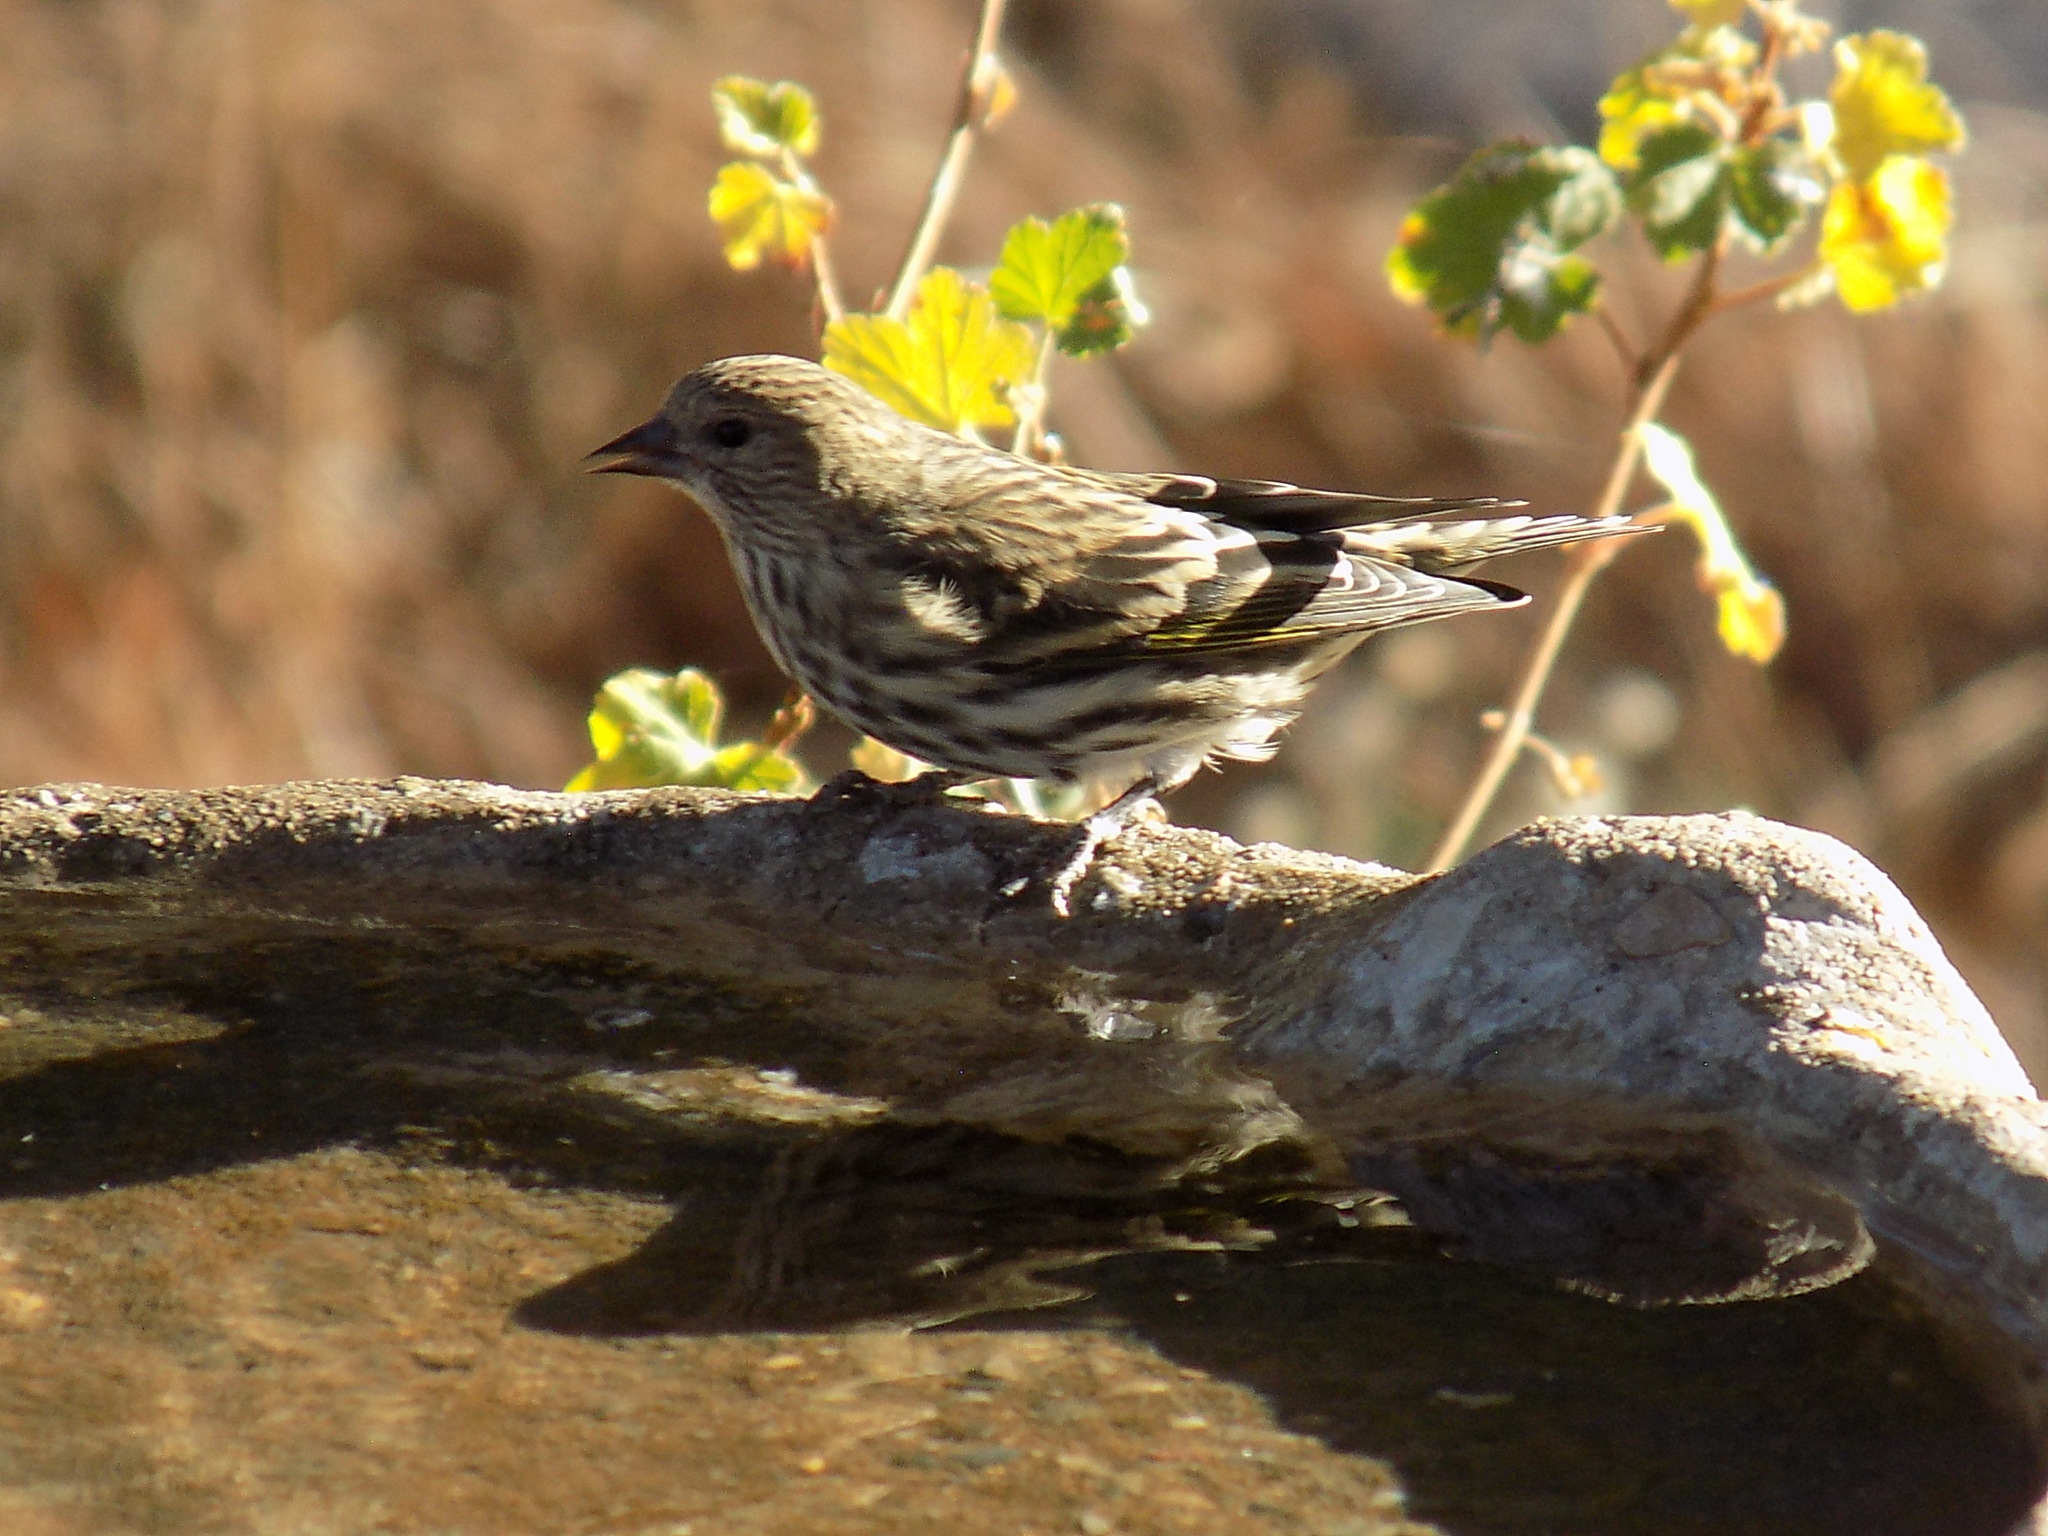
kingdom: Animalia
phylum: Chordata
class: Aves
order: Passeriformes
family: Fringillidae
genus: Spinus
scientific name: Spinus pinus
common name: Pine siskin
